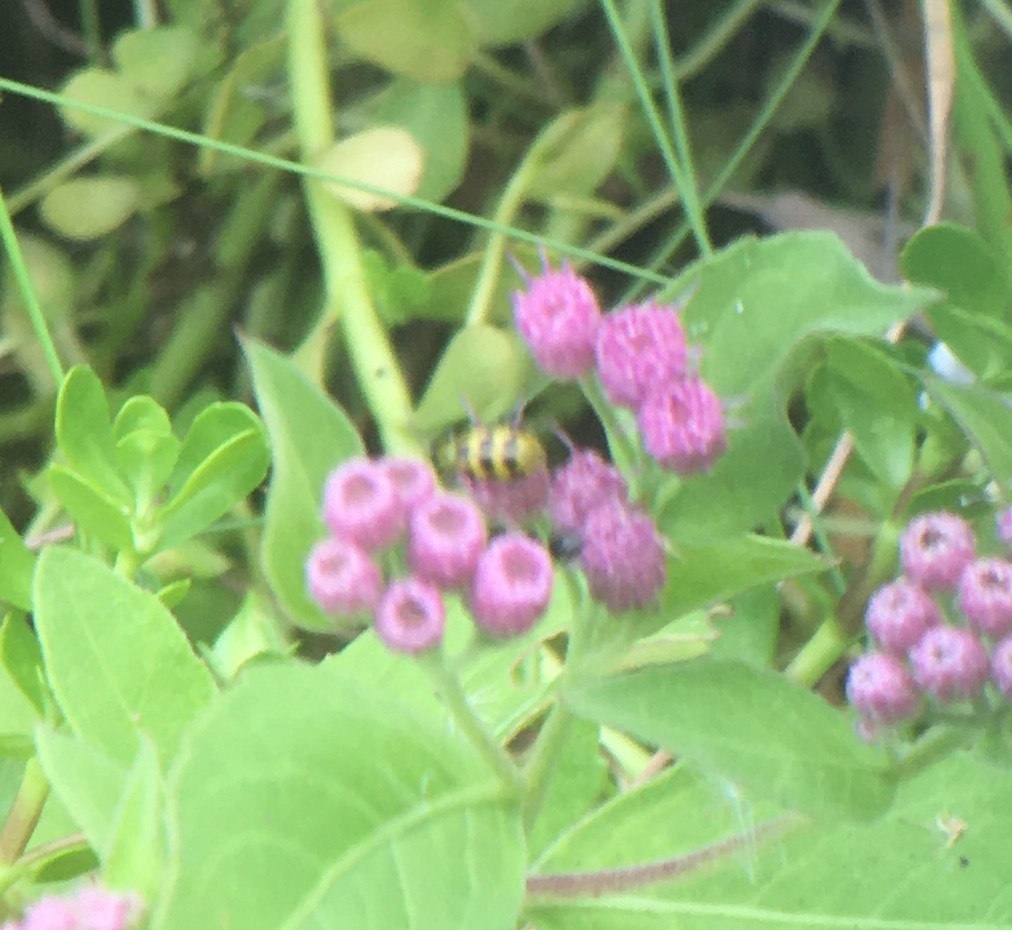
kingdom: Animalia
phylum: Arthropoda
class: Insecta
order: Coleoptera
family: Chrysomelidae
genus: Diabrotica
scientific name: Diabrotica undecimpunctata
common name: Spotted cucumber beetle
